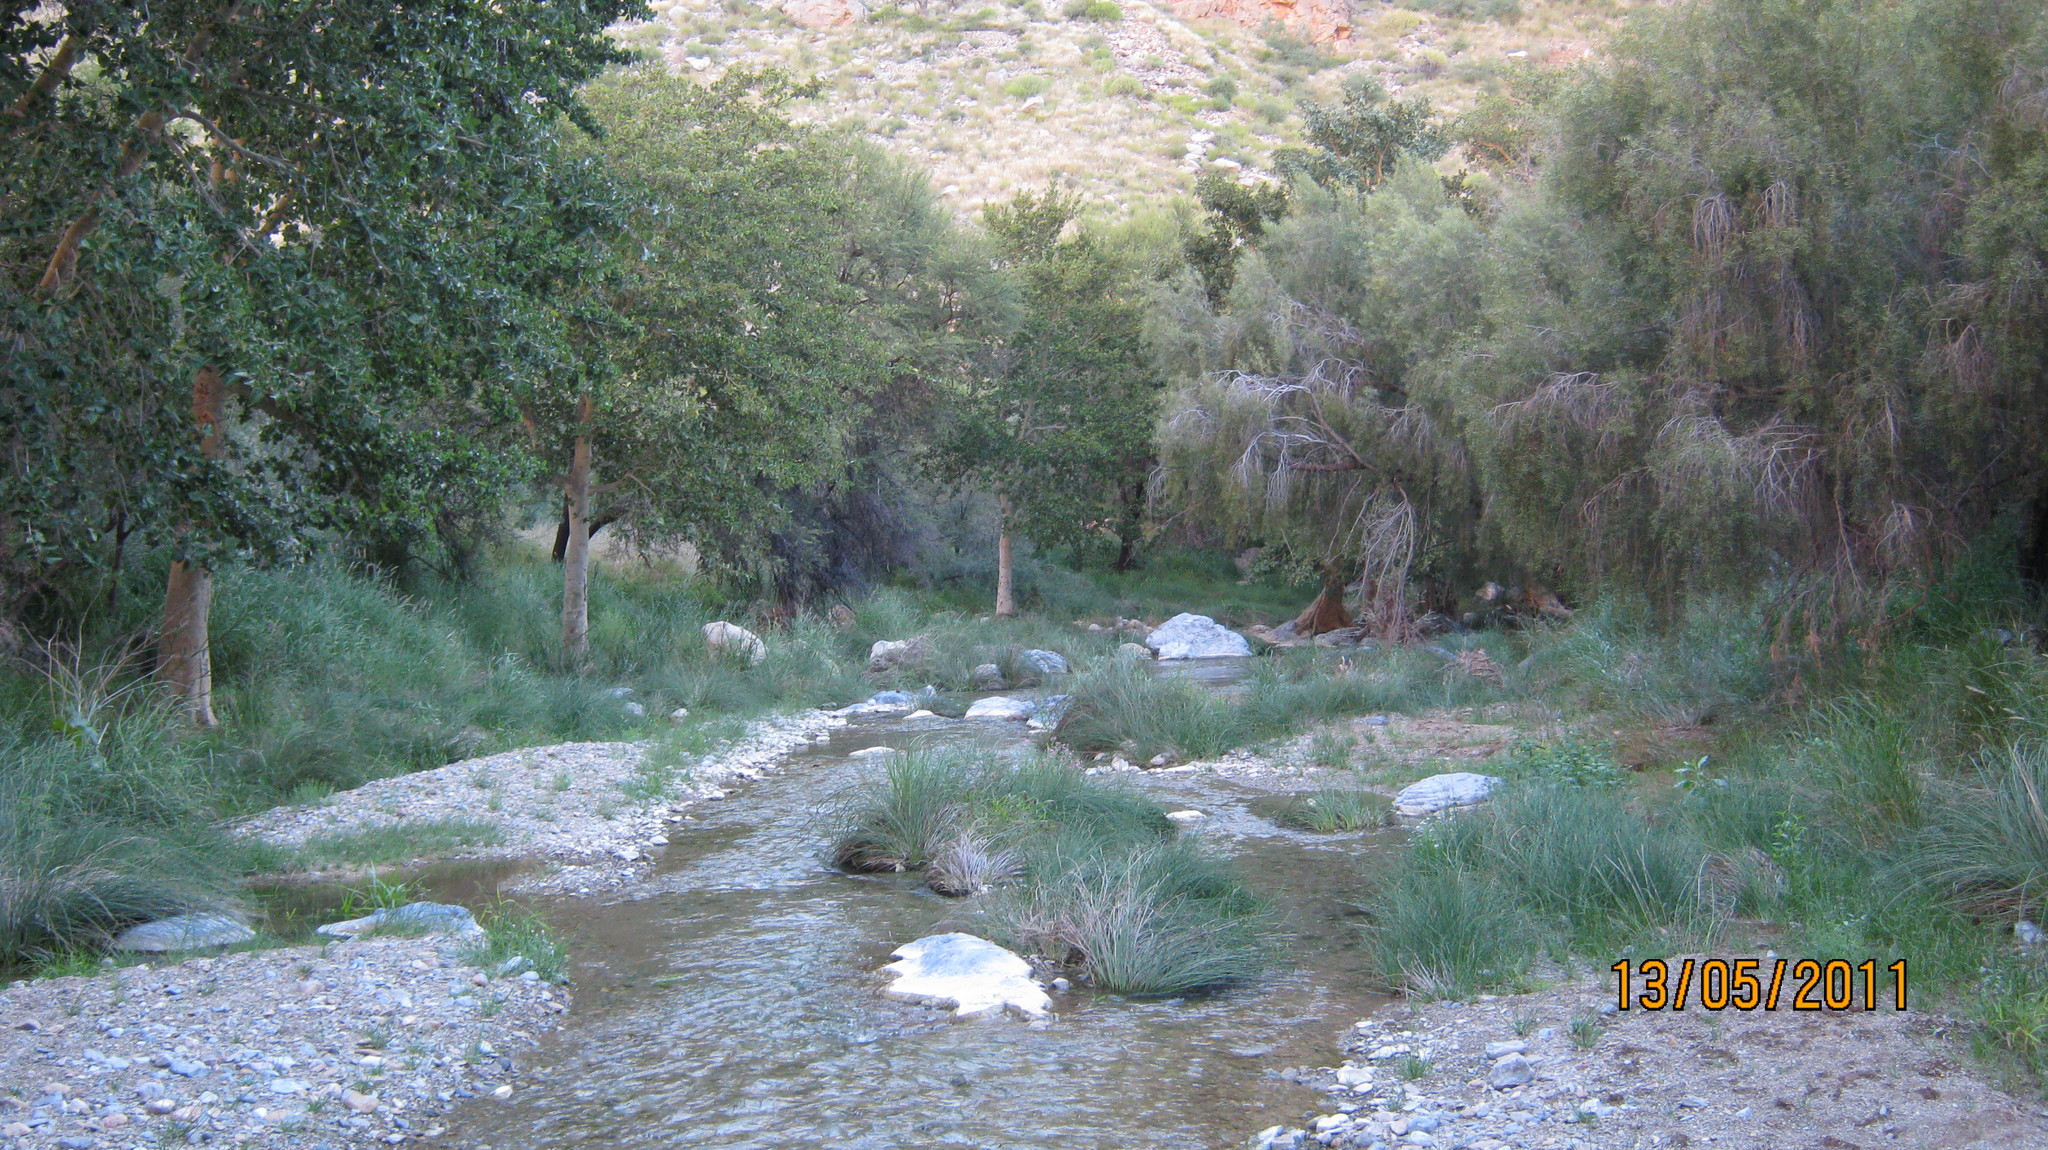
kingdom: Plantae
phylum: Tracheophyta
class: Magnoliopsida
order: Ericales
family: Ebenaceae
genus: Euclea
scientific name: Euclea pseudebenus
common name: Black ebony
